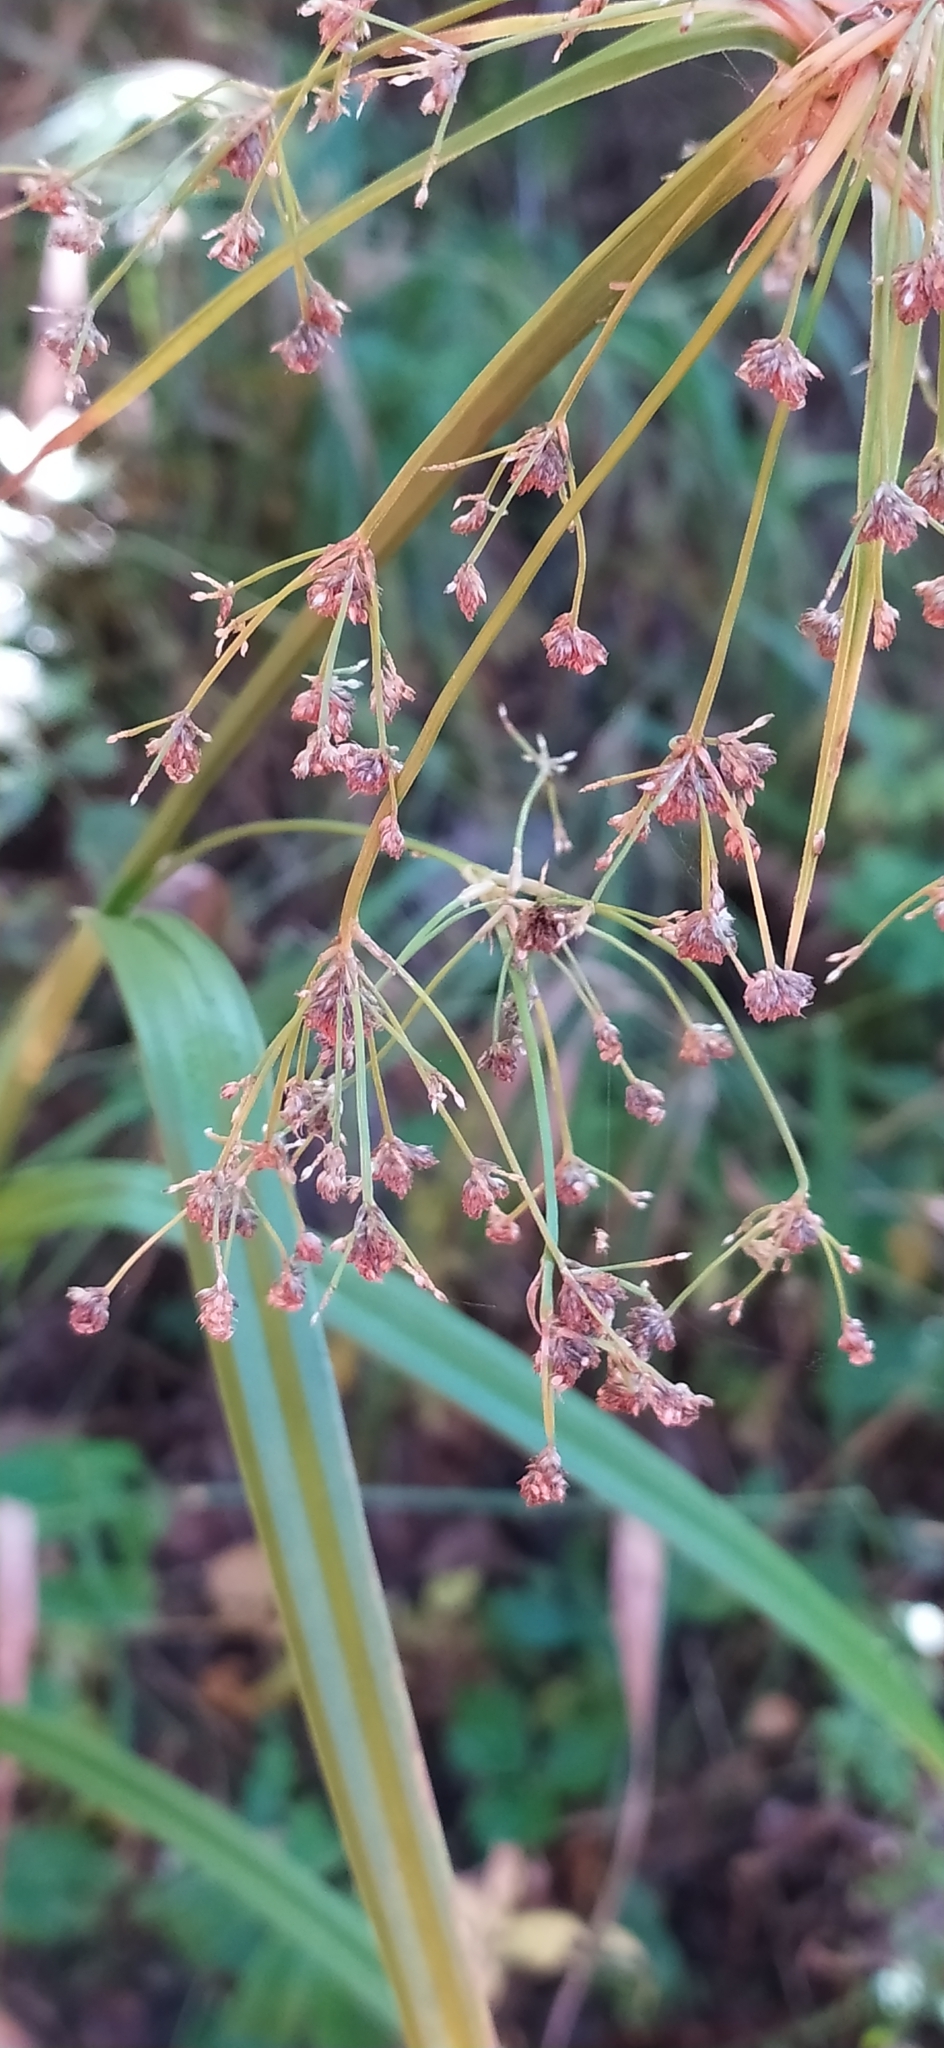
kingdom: Plantae
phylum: Tracheophyta
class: Liliopsida
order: Poales
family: Cyperaceae
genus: Scirpus
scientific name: Scirpus sylvaticus
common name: Wood club-rush
